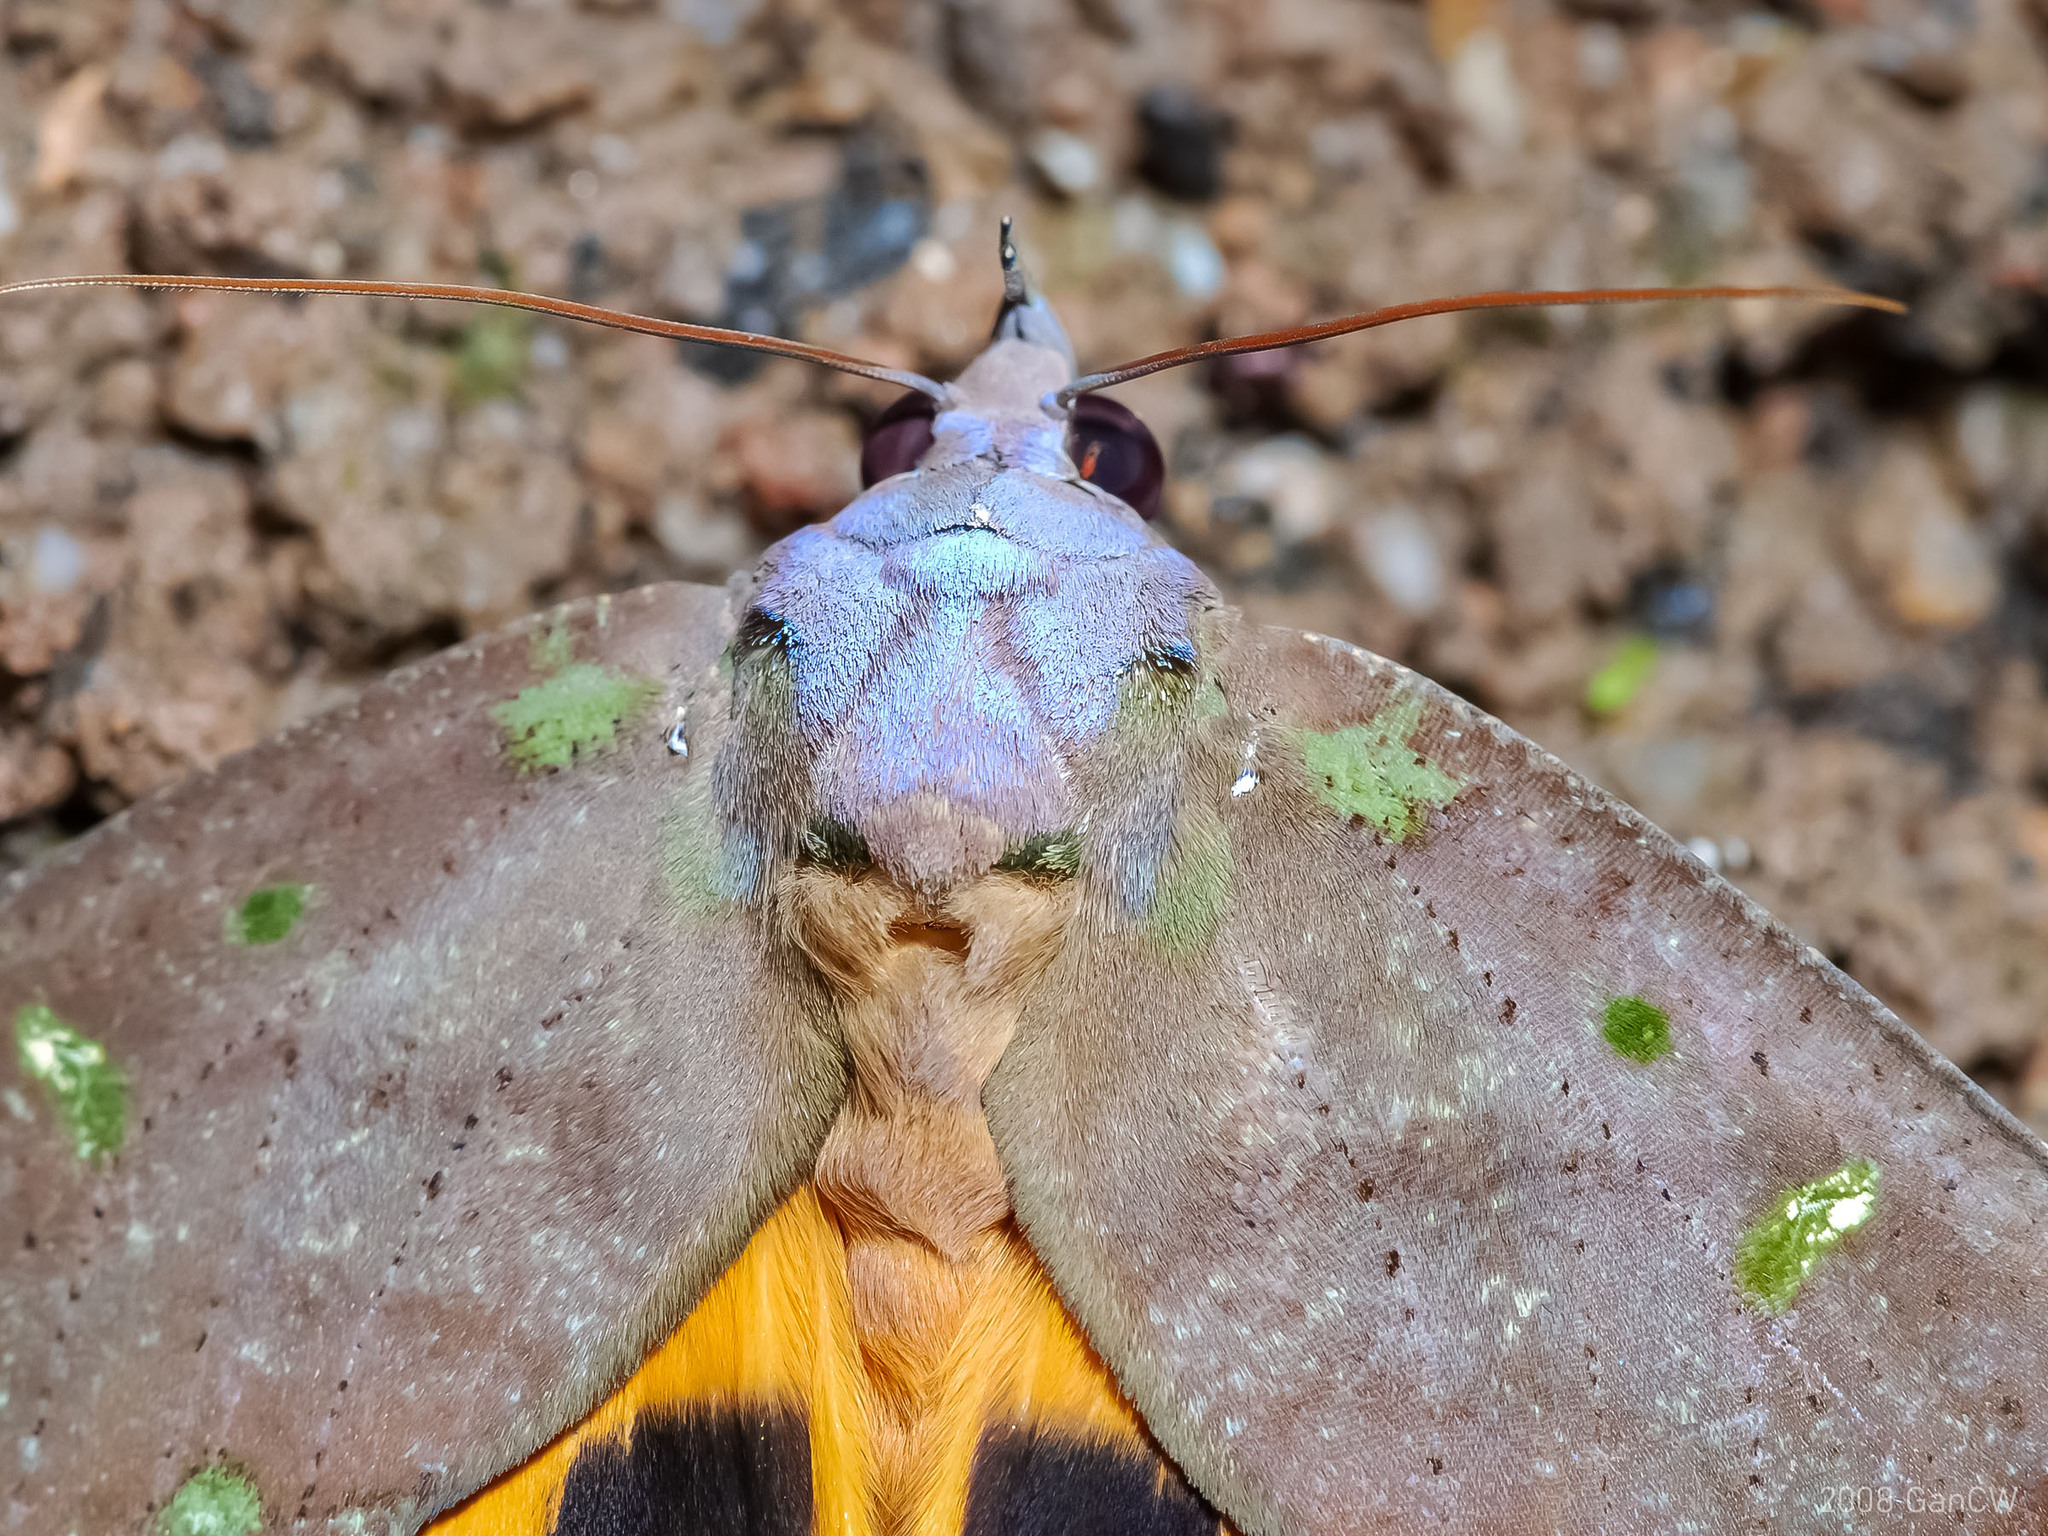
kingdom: Animalia
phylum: Arthropoda
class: Insecta
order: Lepidoptera
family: Erebidae
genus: Eudocima
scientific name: Eudocima discrepans
